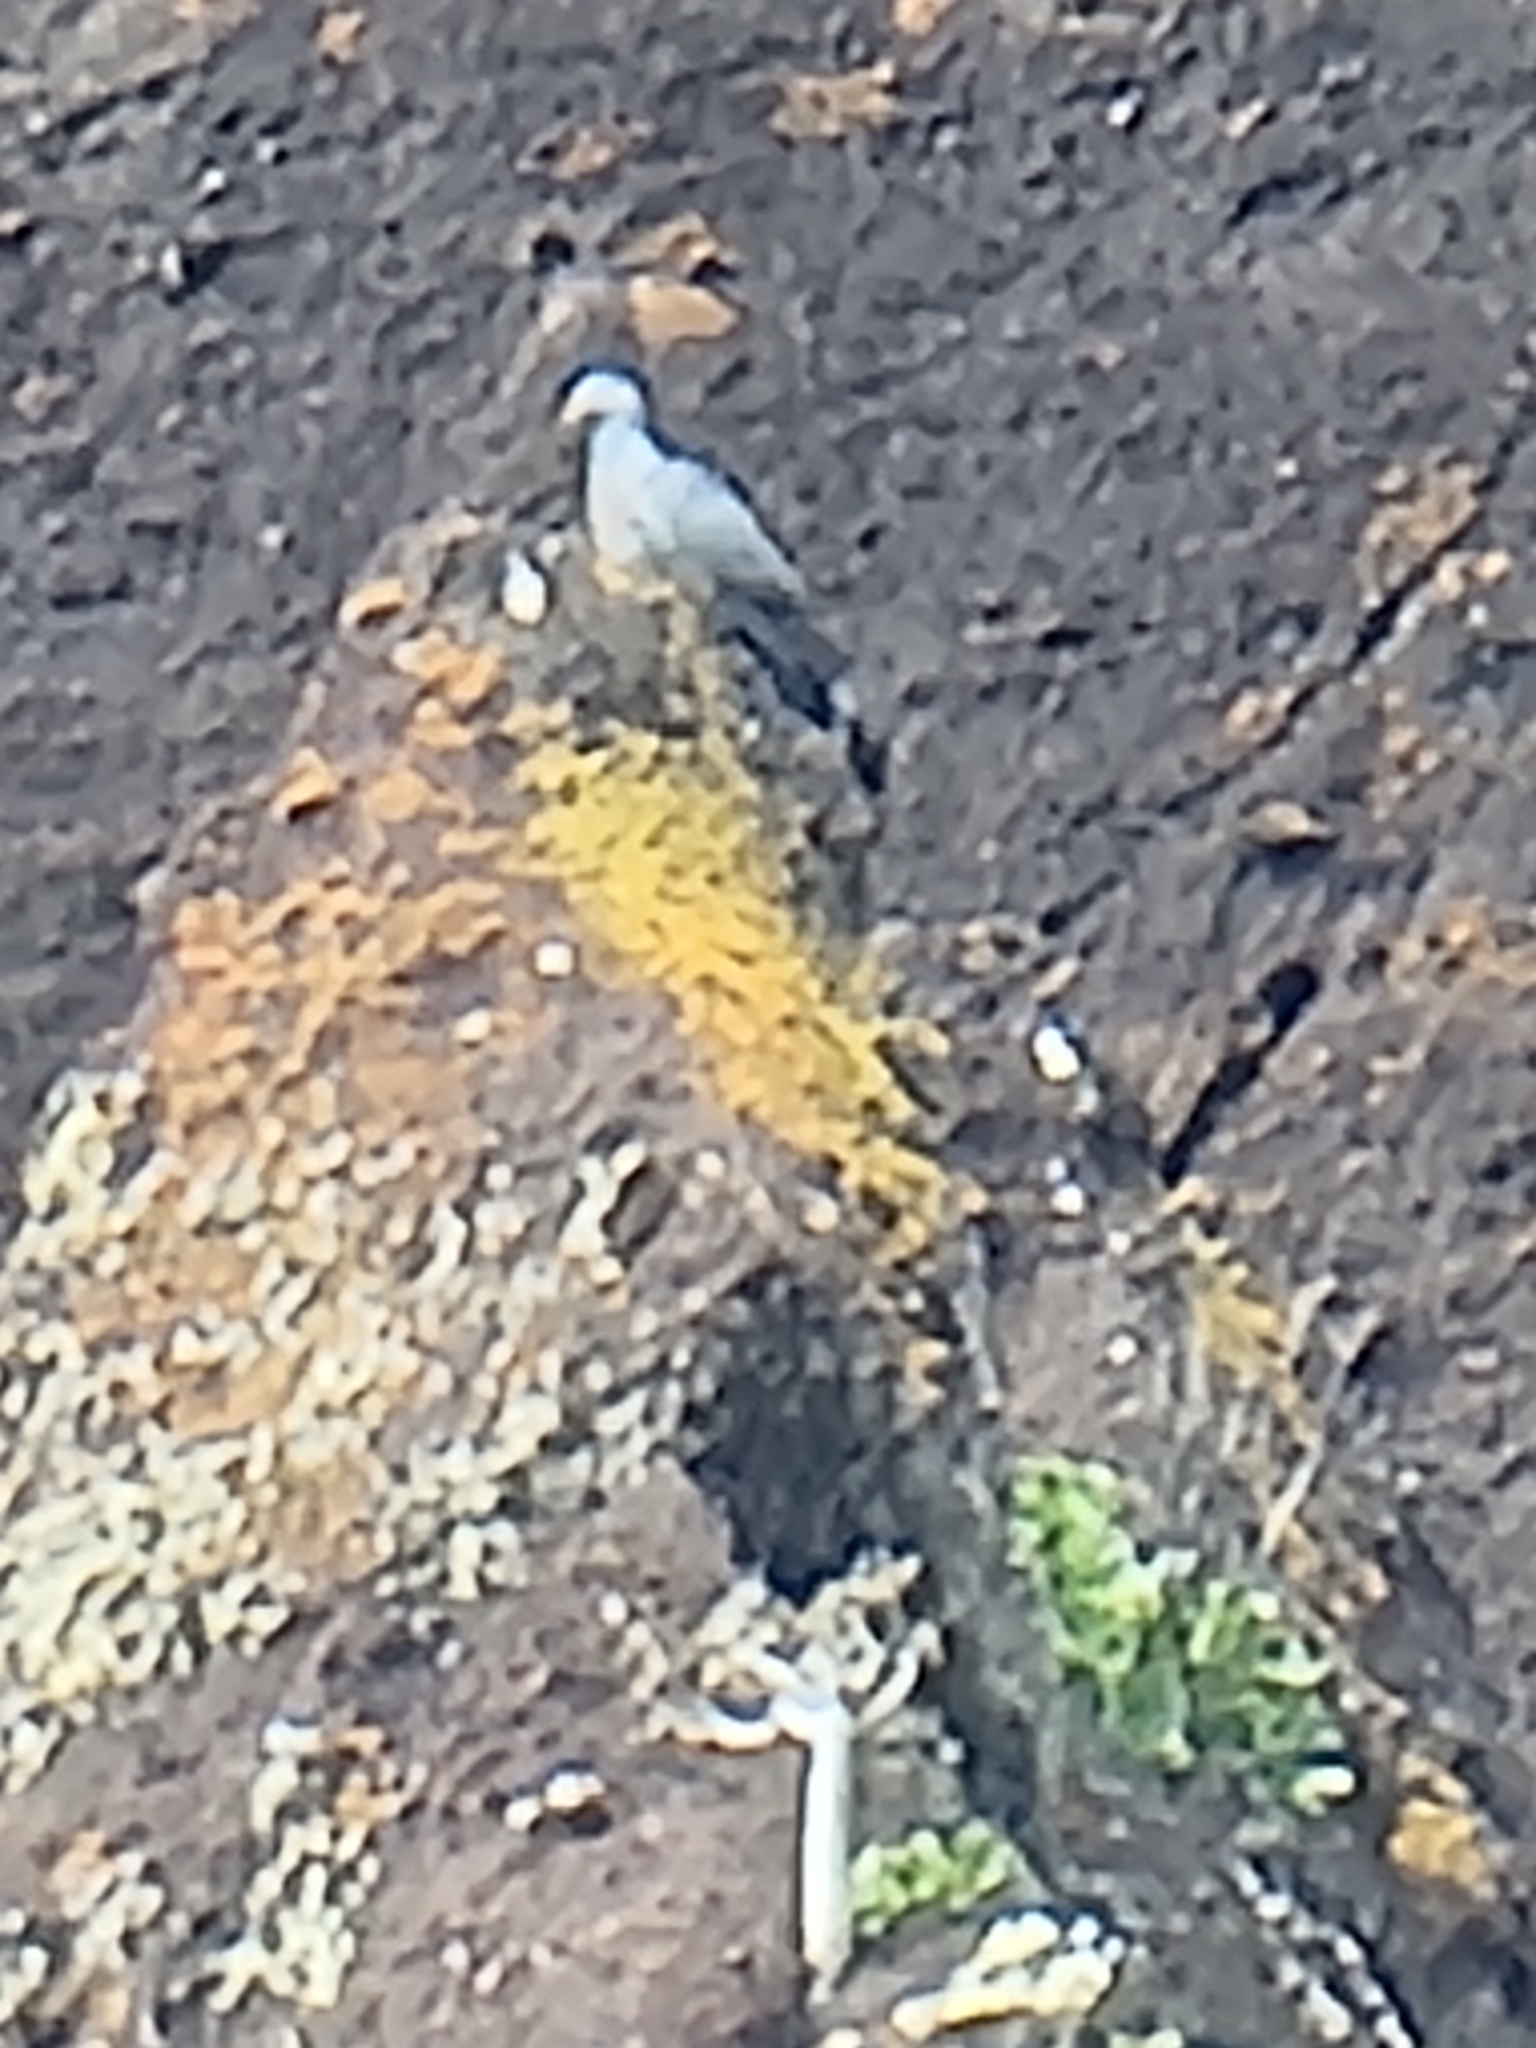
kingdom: Animalia
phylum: Chordata
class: Aves
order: Columbiformes
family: Columbidae
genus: Columba
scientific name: Columba trocaz
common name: Trocaz pigeon
